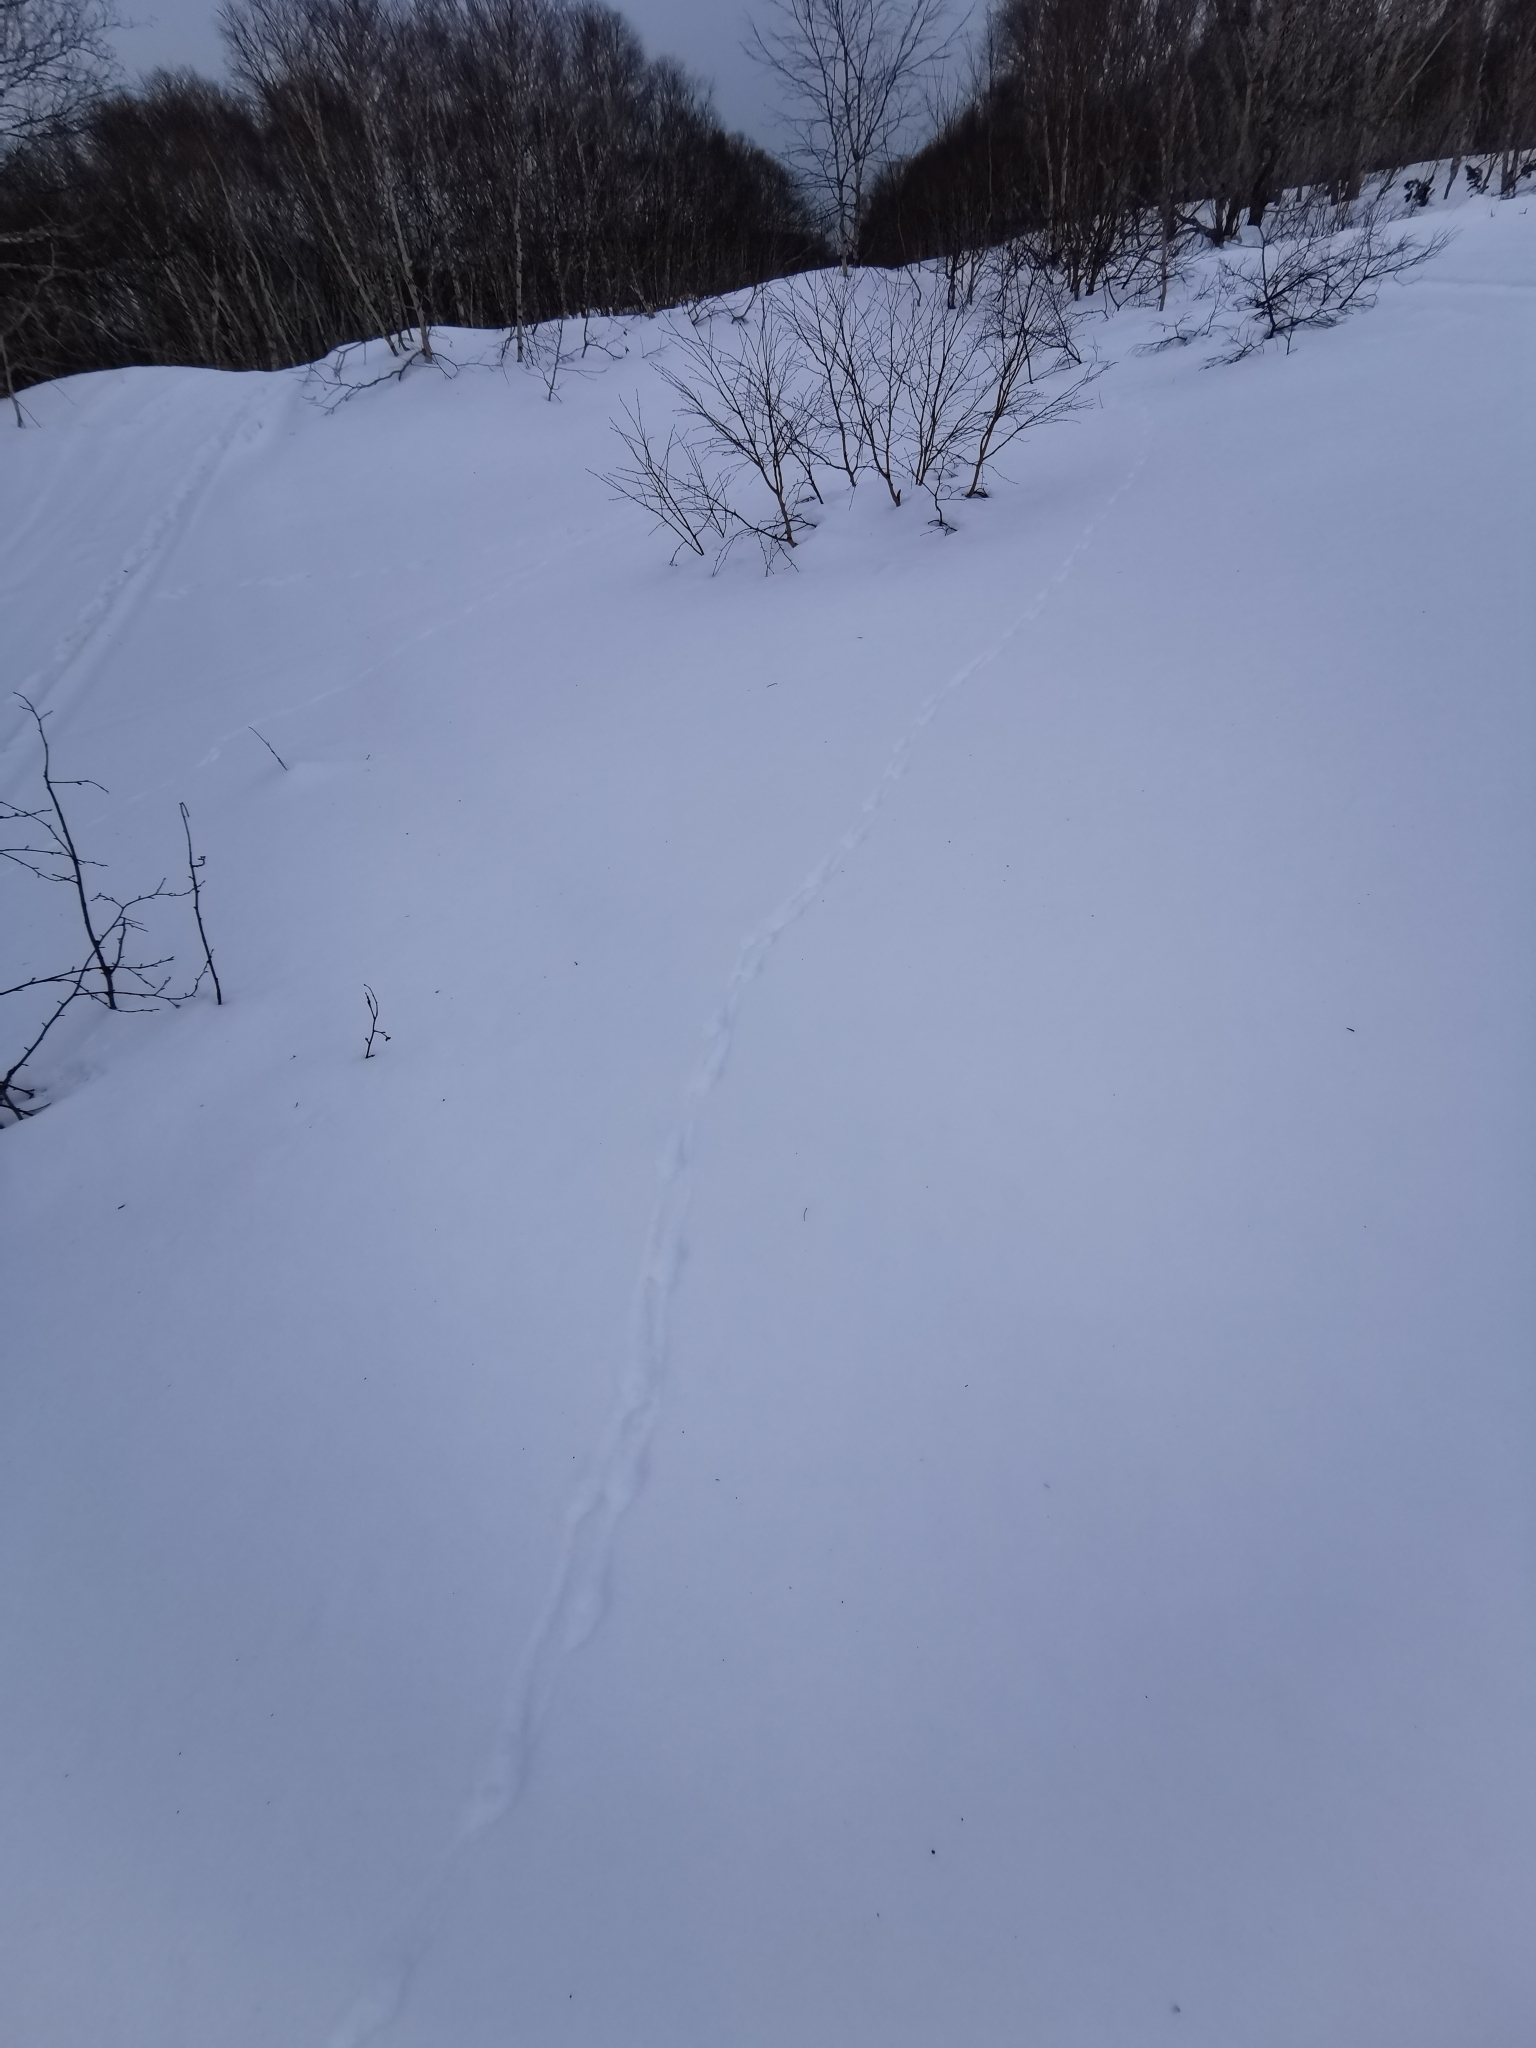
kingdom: Animalia
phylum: Chordata
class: Aves
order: Galliformes
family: Phasianidae
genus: Lagopus
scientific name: Lagopus lagopus
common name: Willow ptarmigan
